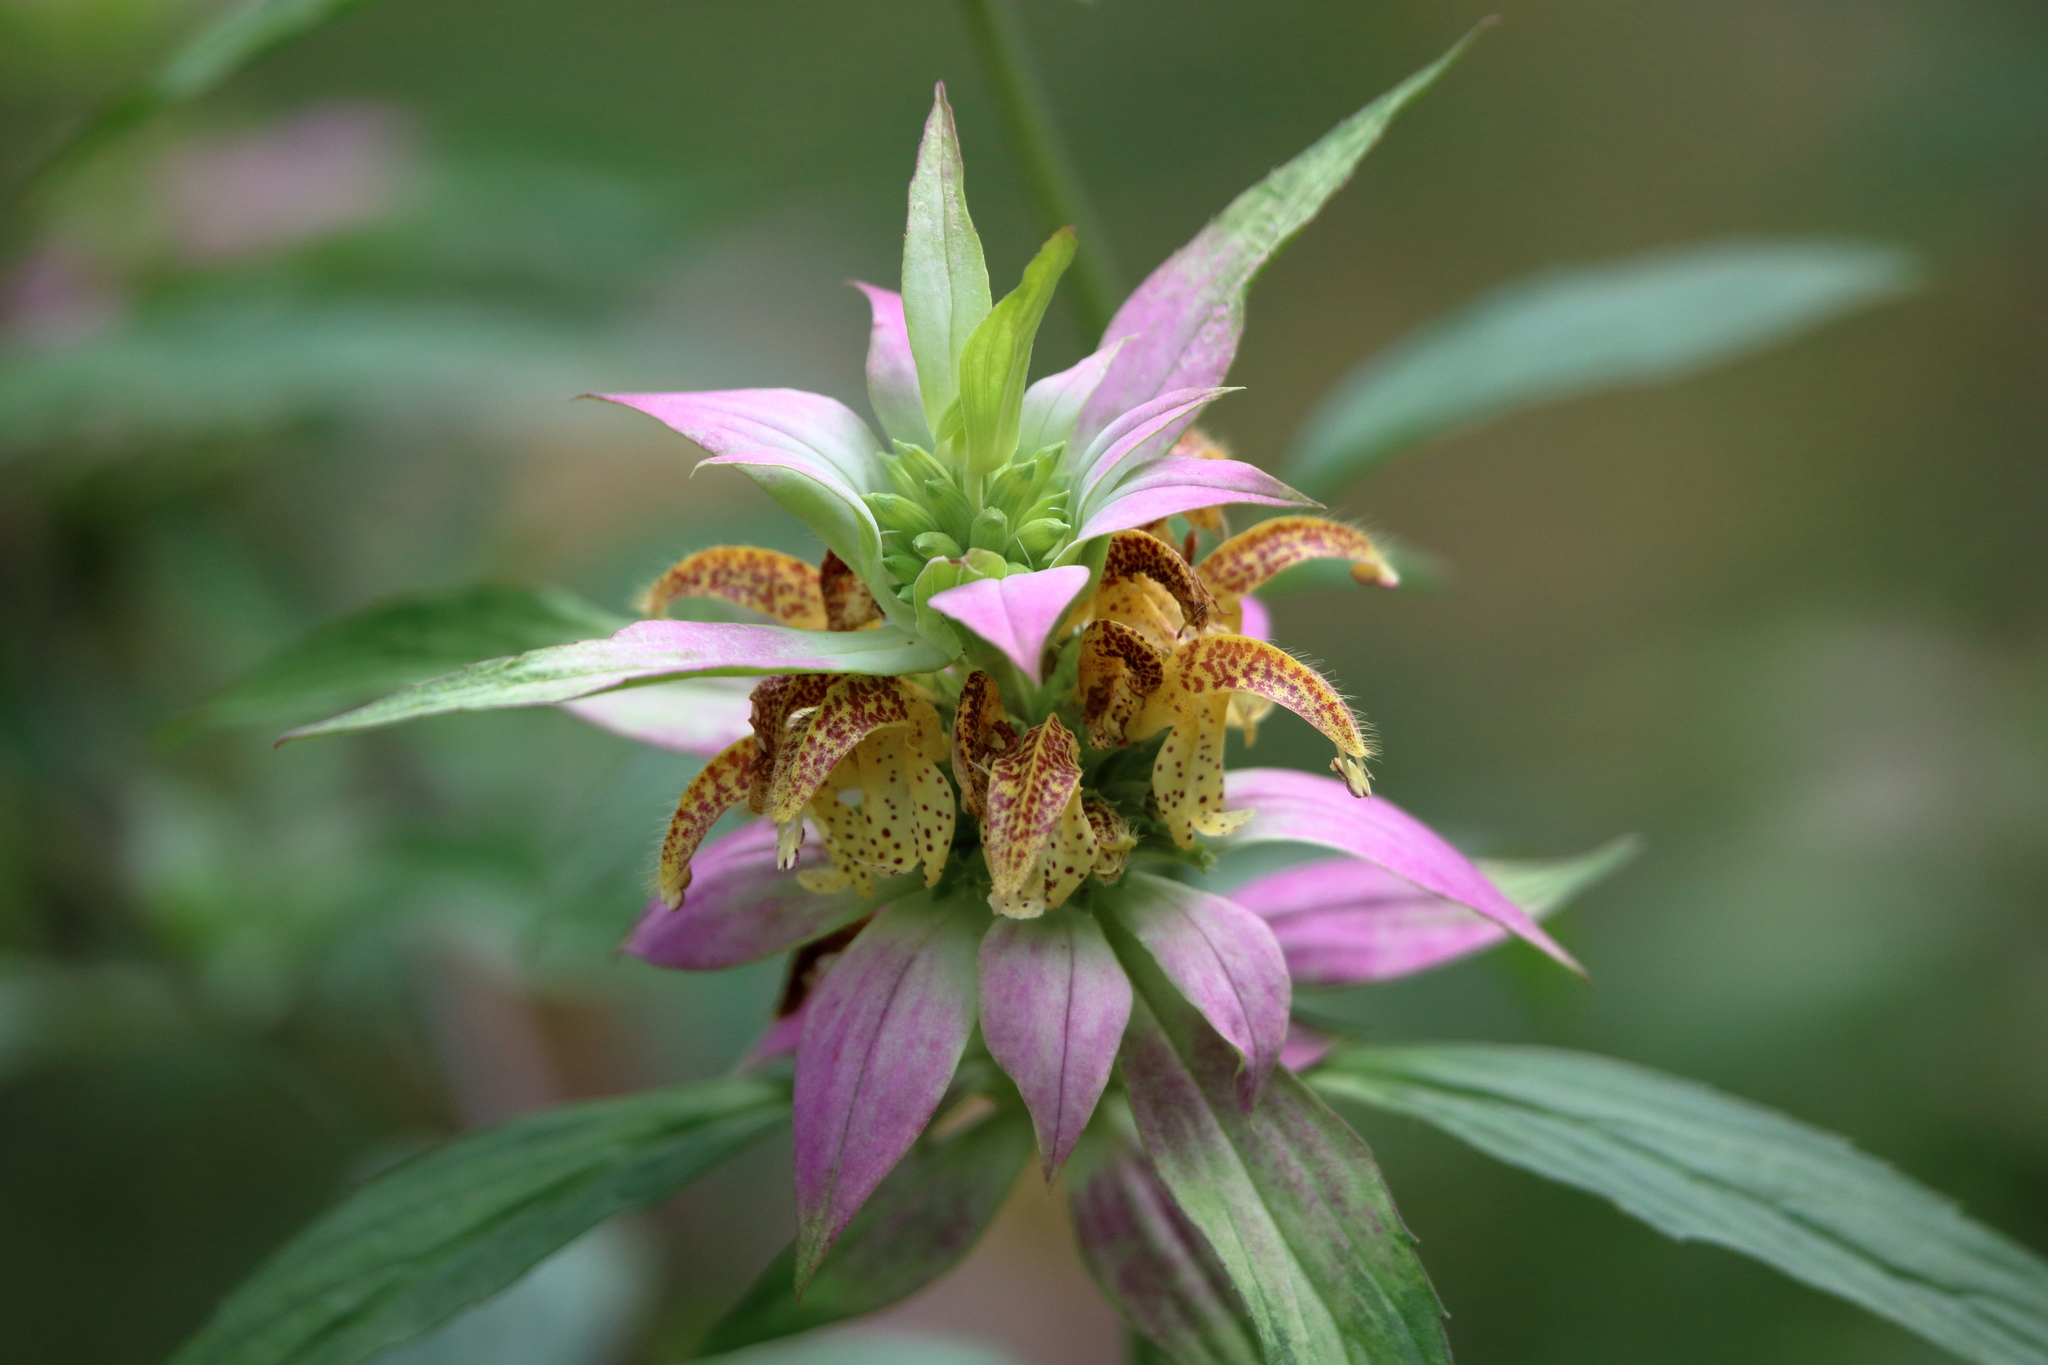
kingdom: Plantae
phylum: Tracheophyta
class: Magnoliopsida
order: Lamiales
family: Lamiaceae
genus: Monarda
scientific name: Monarda punctata
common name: Dotted monarda
